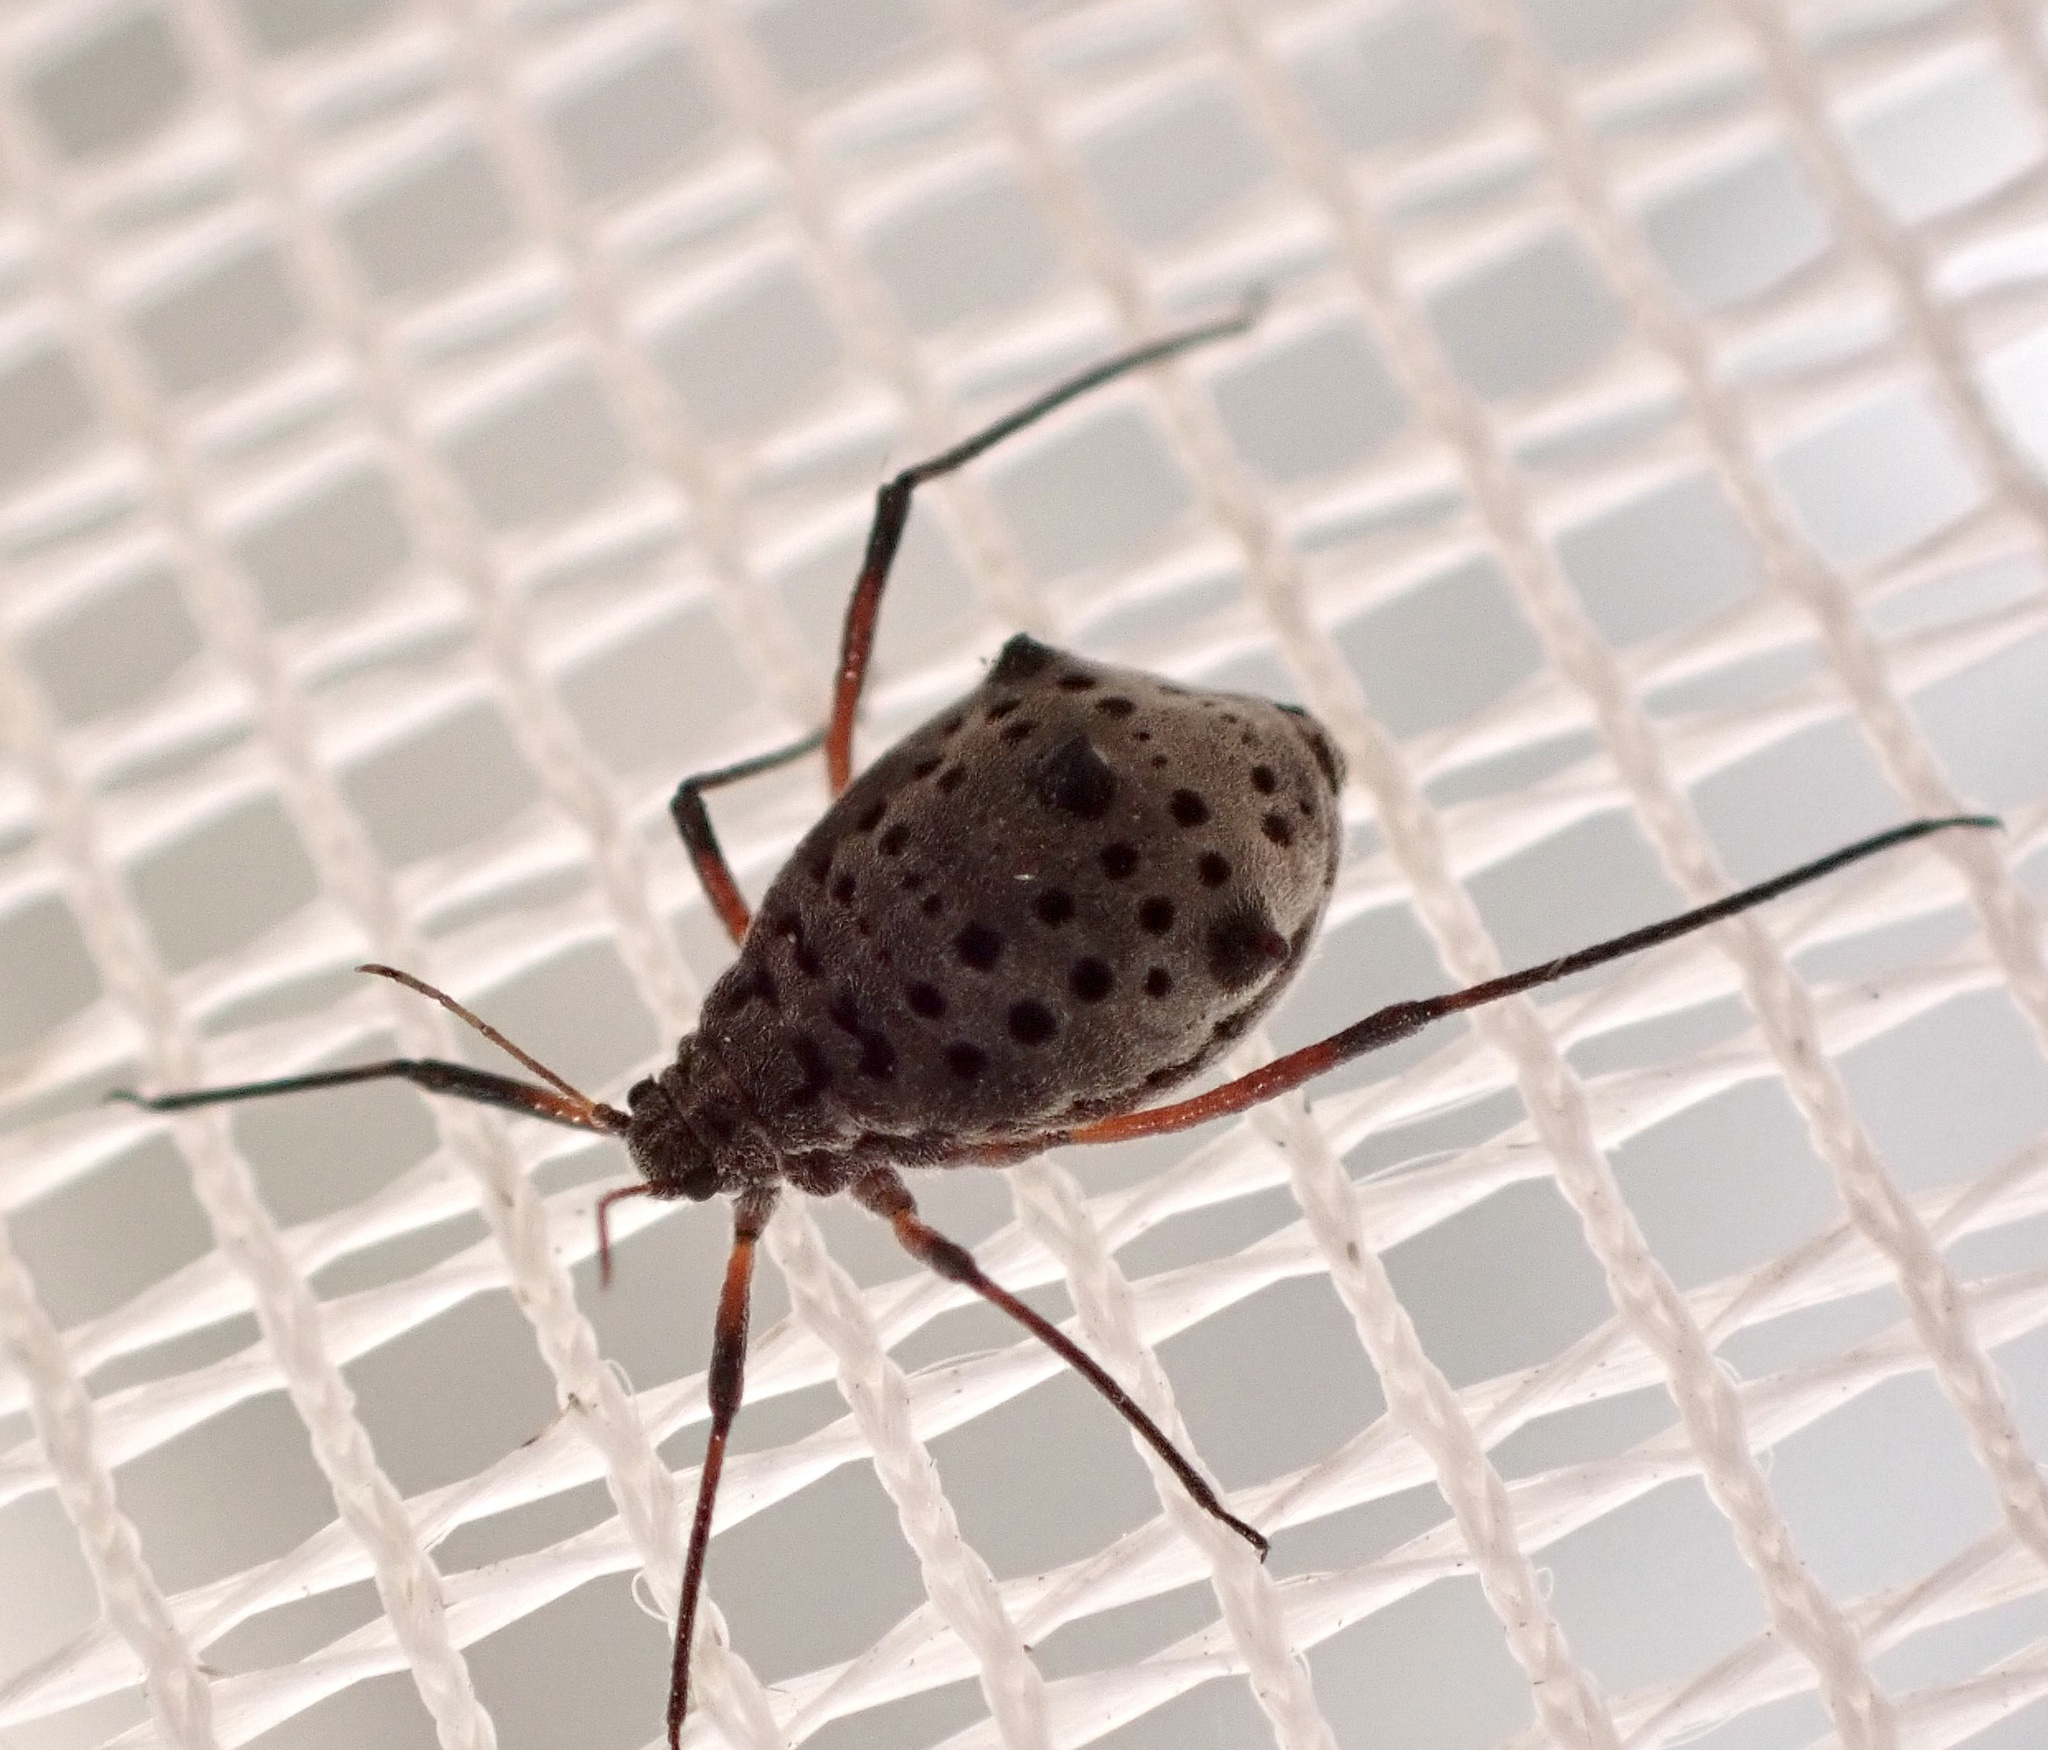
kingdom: Animalia
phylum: Arthropoda
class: Insecta
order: Hemiptera
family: Aphididae
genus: Tuberolachnus
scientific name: Tuberolachnus salignus
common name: Giant willow aphid
